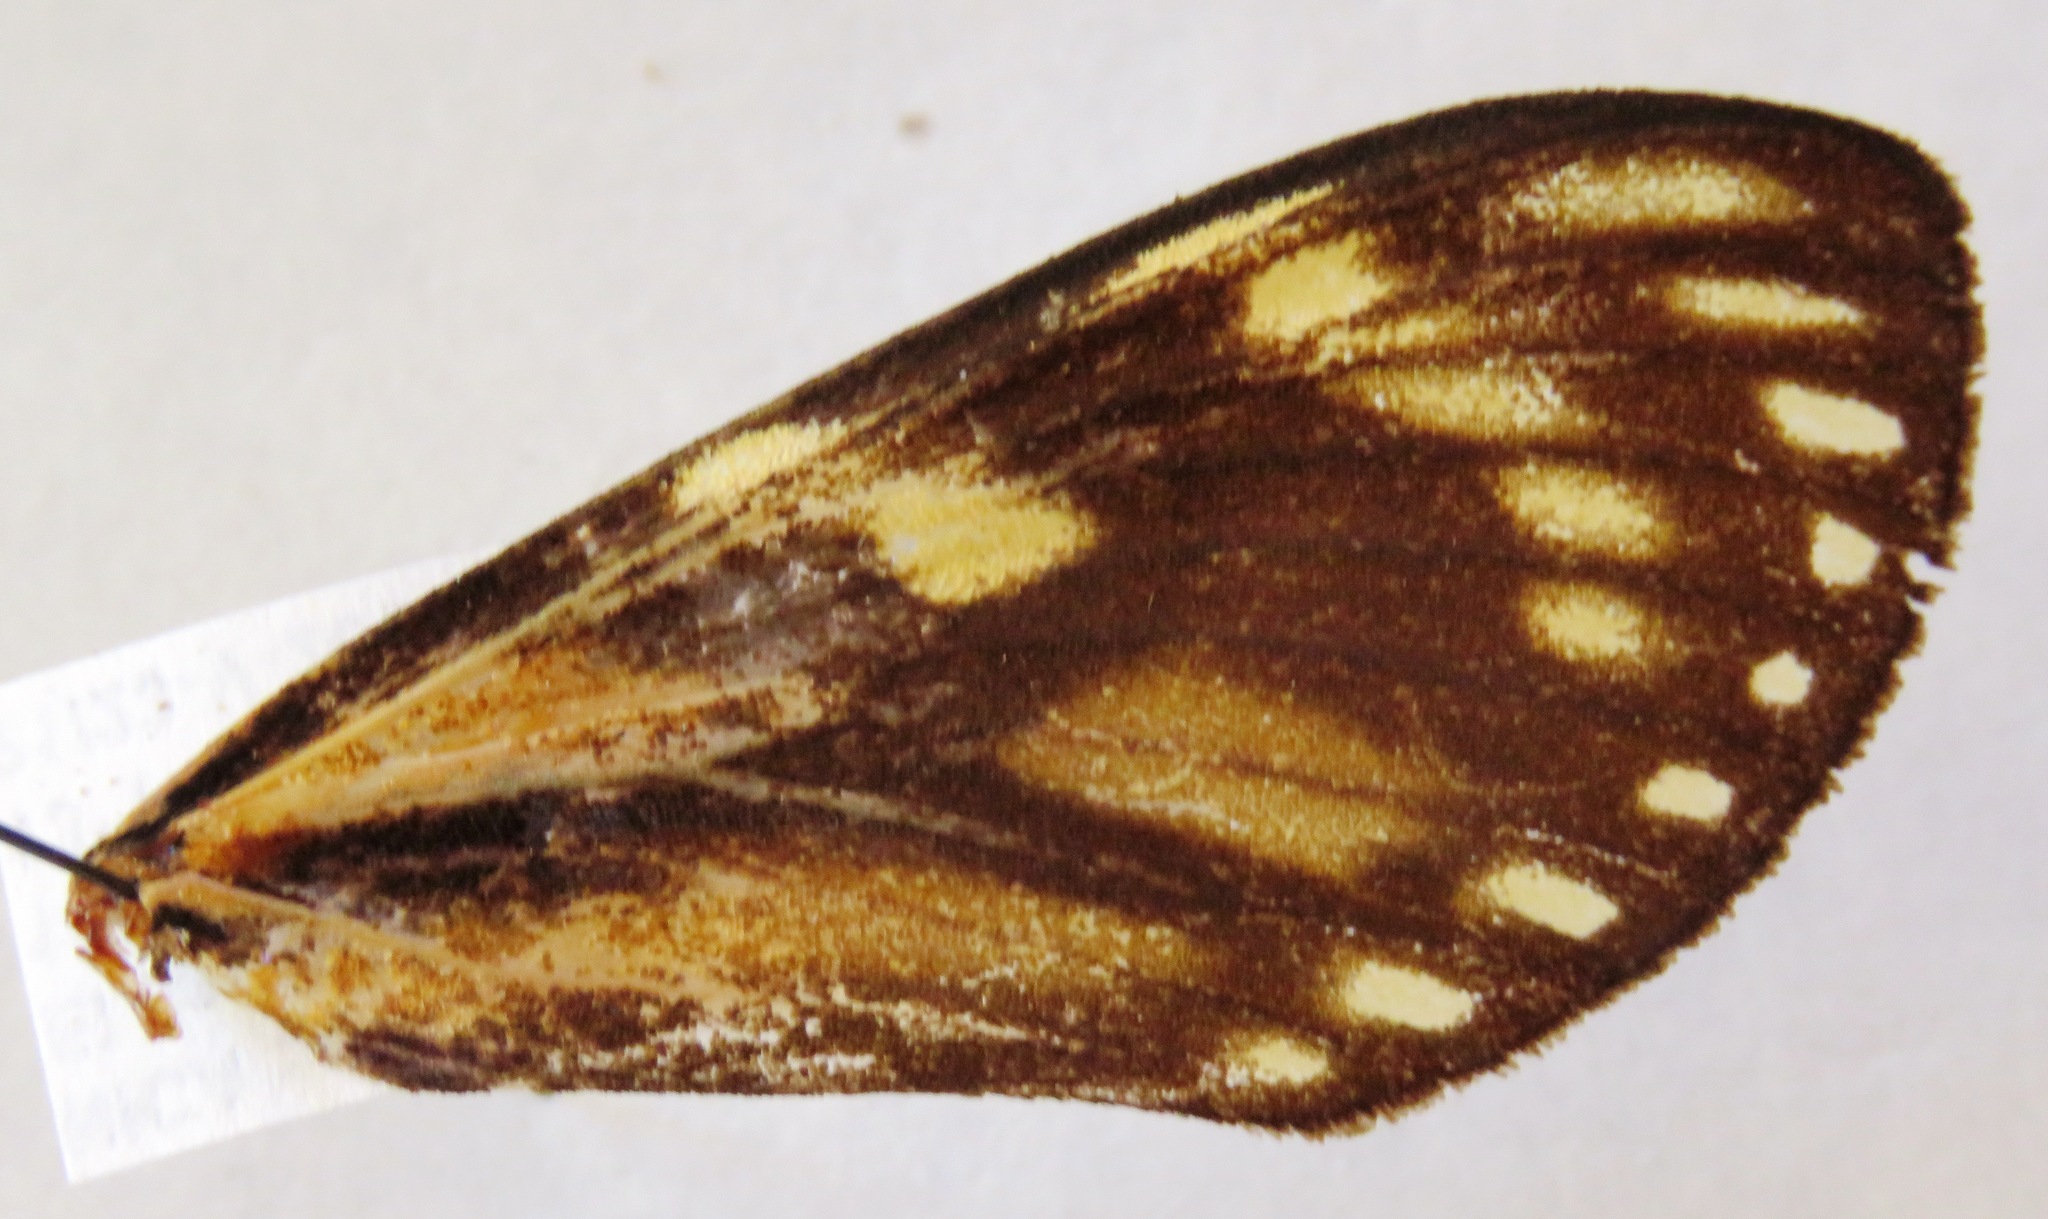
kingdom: Animalia
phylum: Arthropoda
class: Insecta
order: Lepidoptera
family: Castniidae
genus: Zegara
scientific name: Zegara salvina
